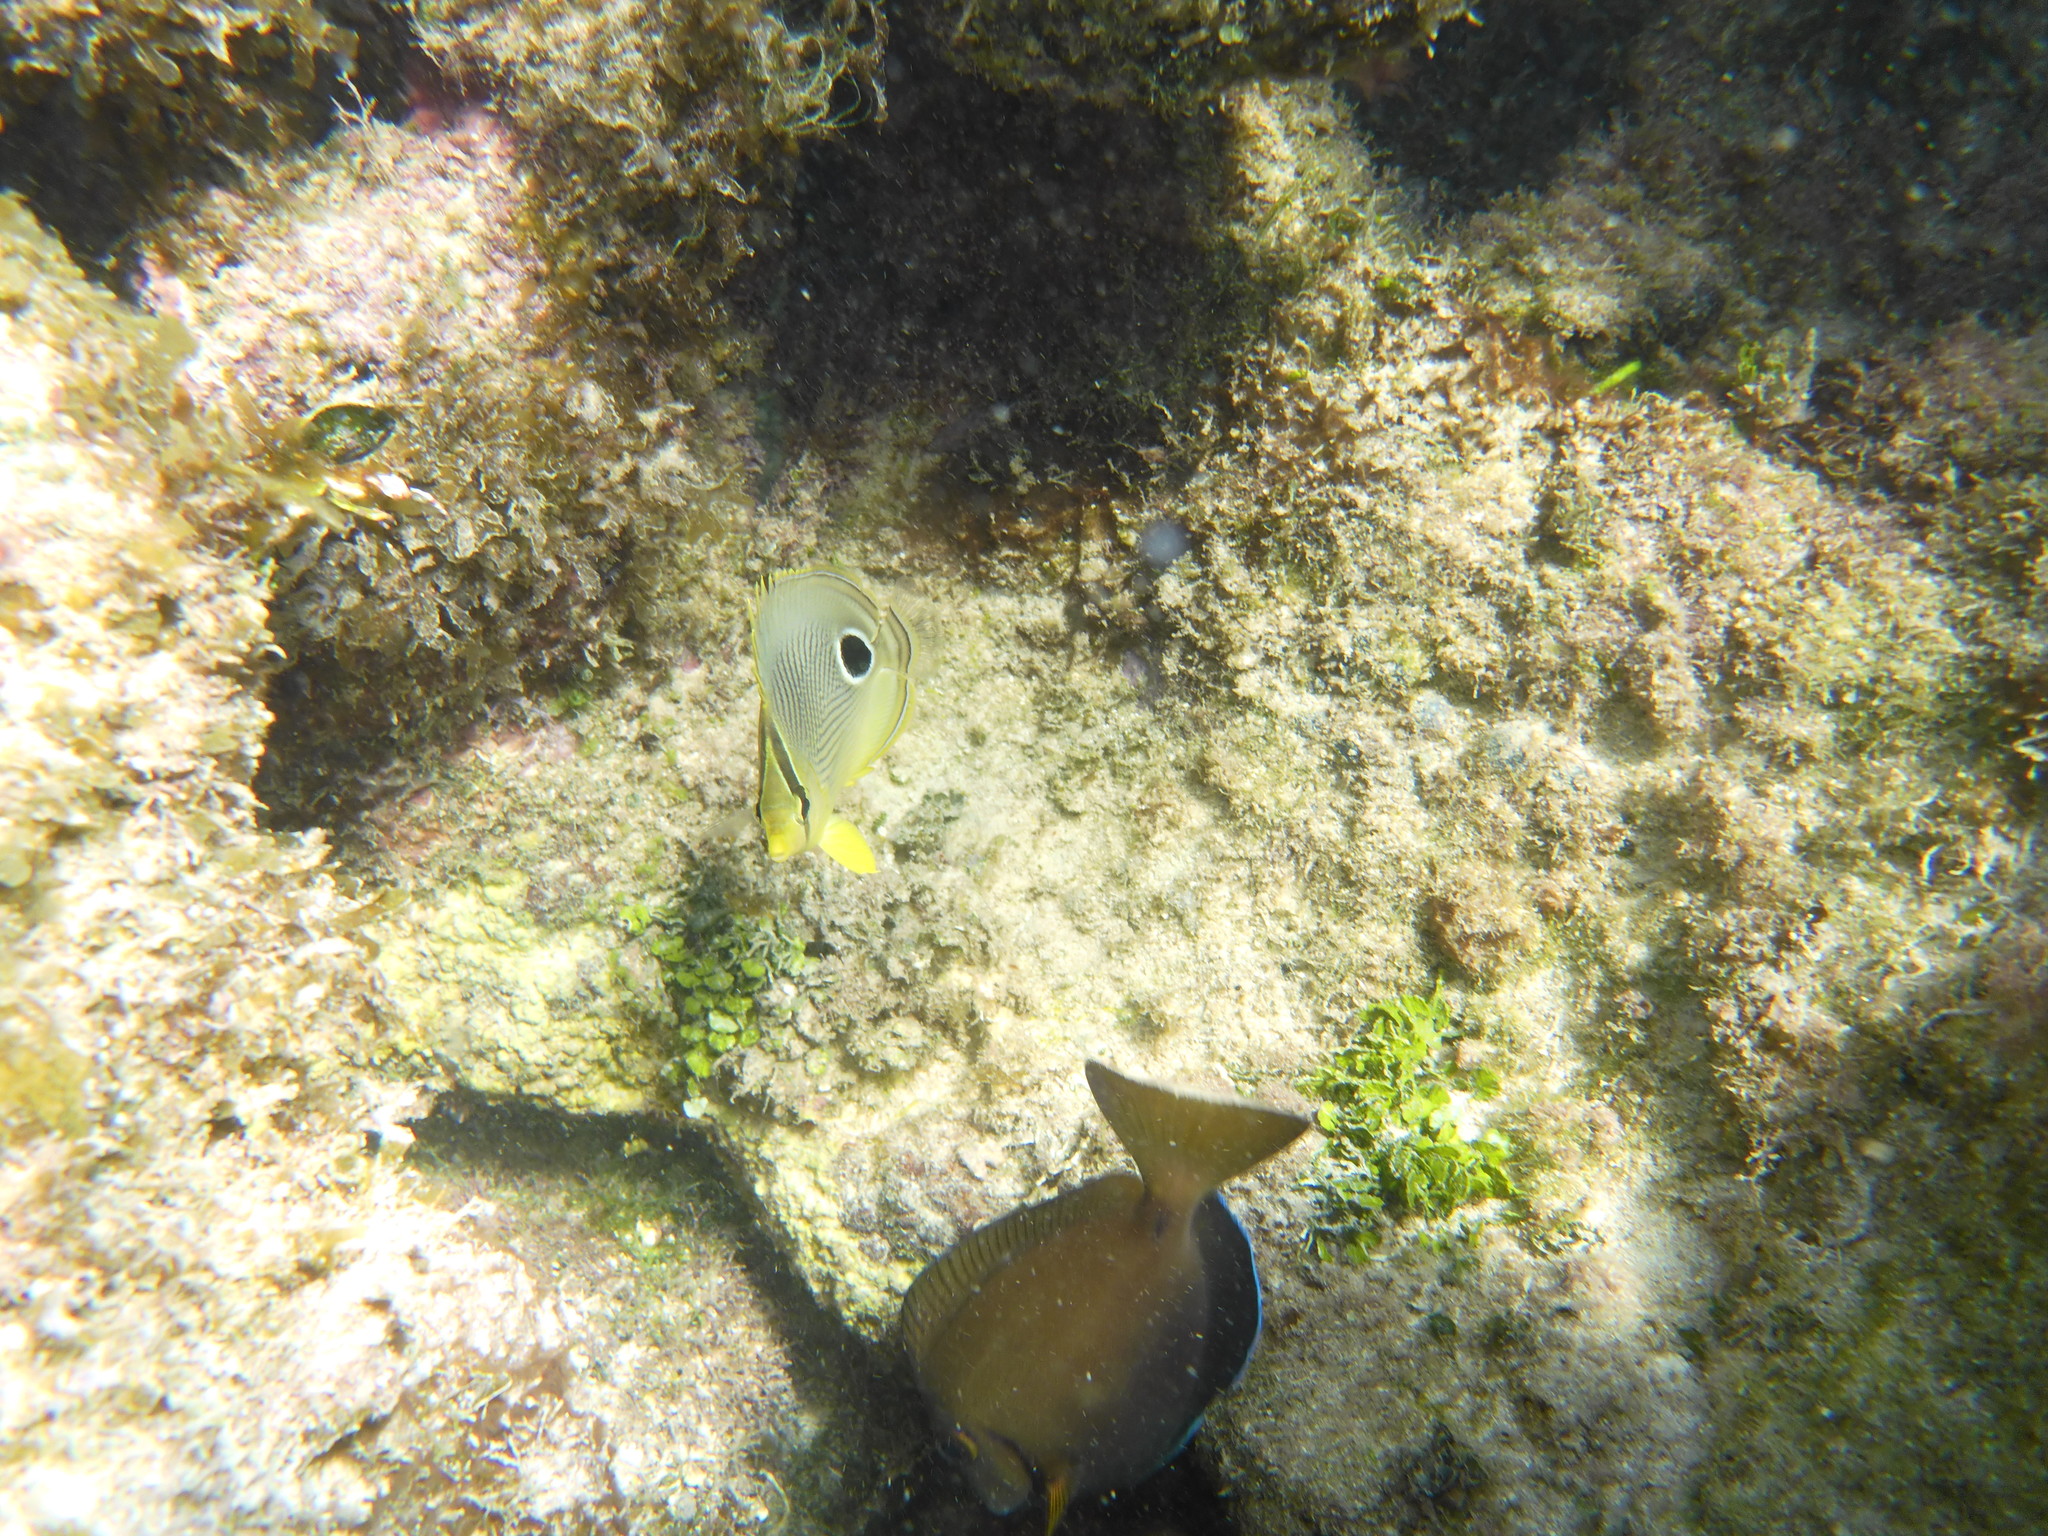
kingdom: Animalia
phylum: Chordata
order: Perciformes
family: Chaetodontidae
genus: Chaetodon
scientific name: Chaetodon capistratus
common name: Kete
